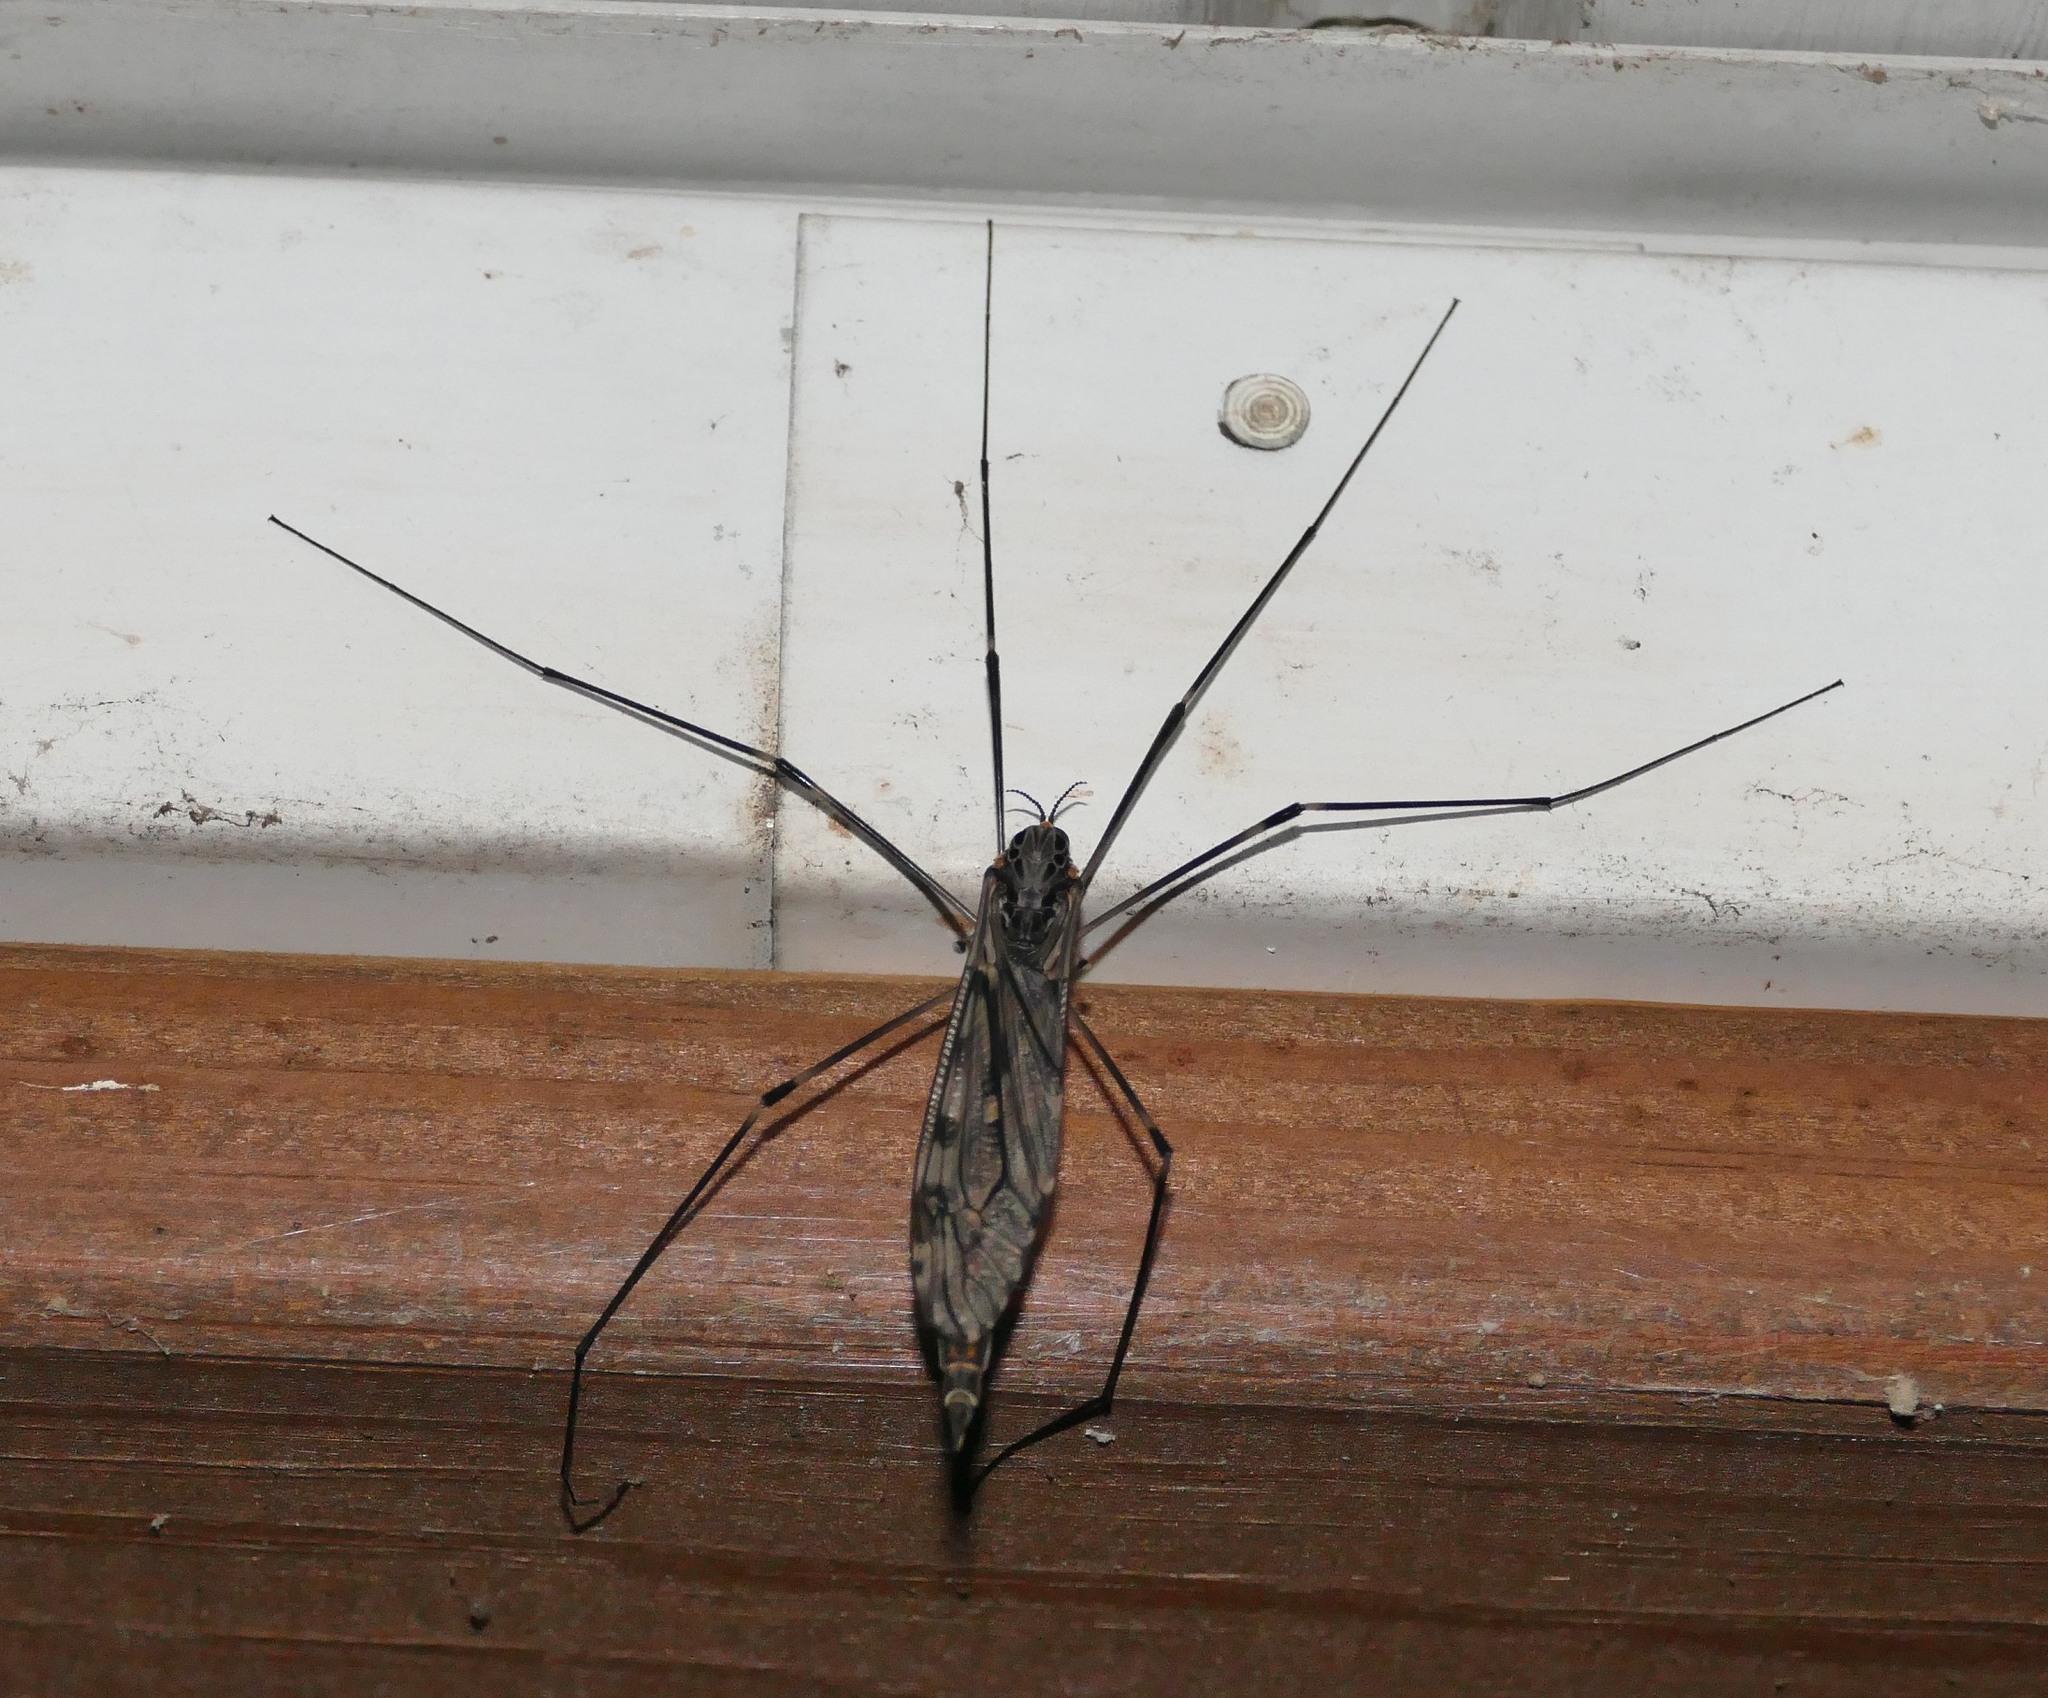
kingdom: Animalia
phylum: Arthropoda
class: Insecta
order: Diptera
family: Tipulidae
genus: Tipula
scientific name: Tipula abdominalis
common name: Giant crane fly
